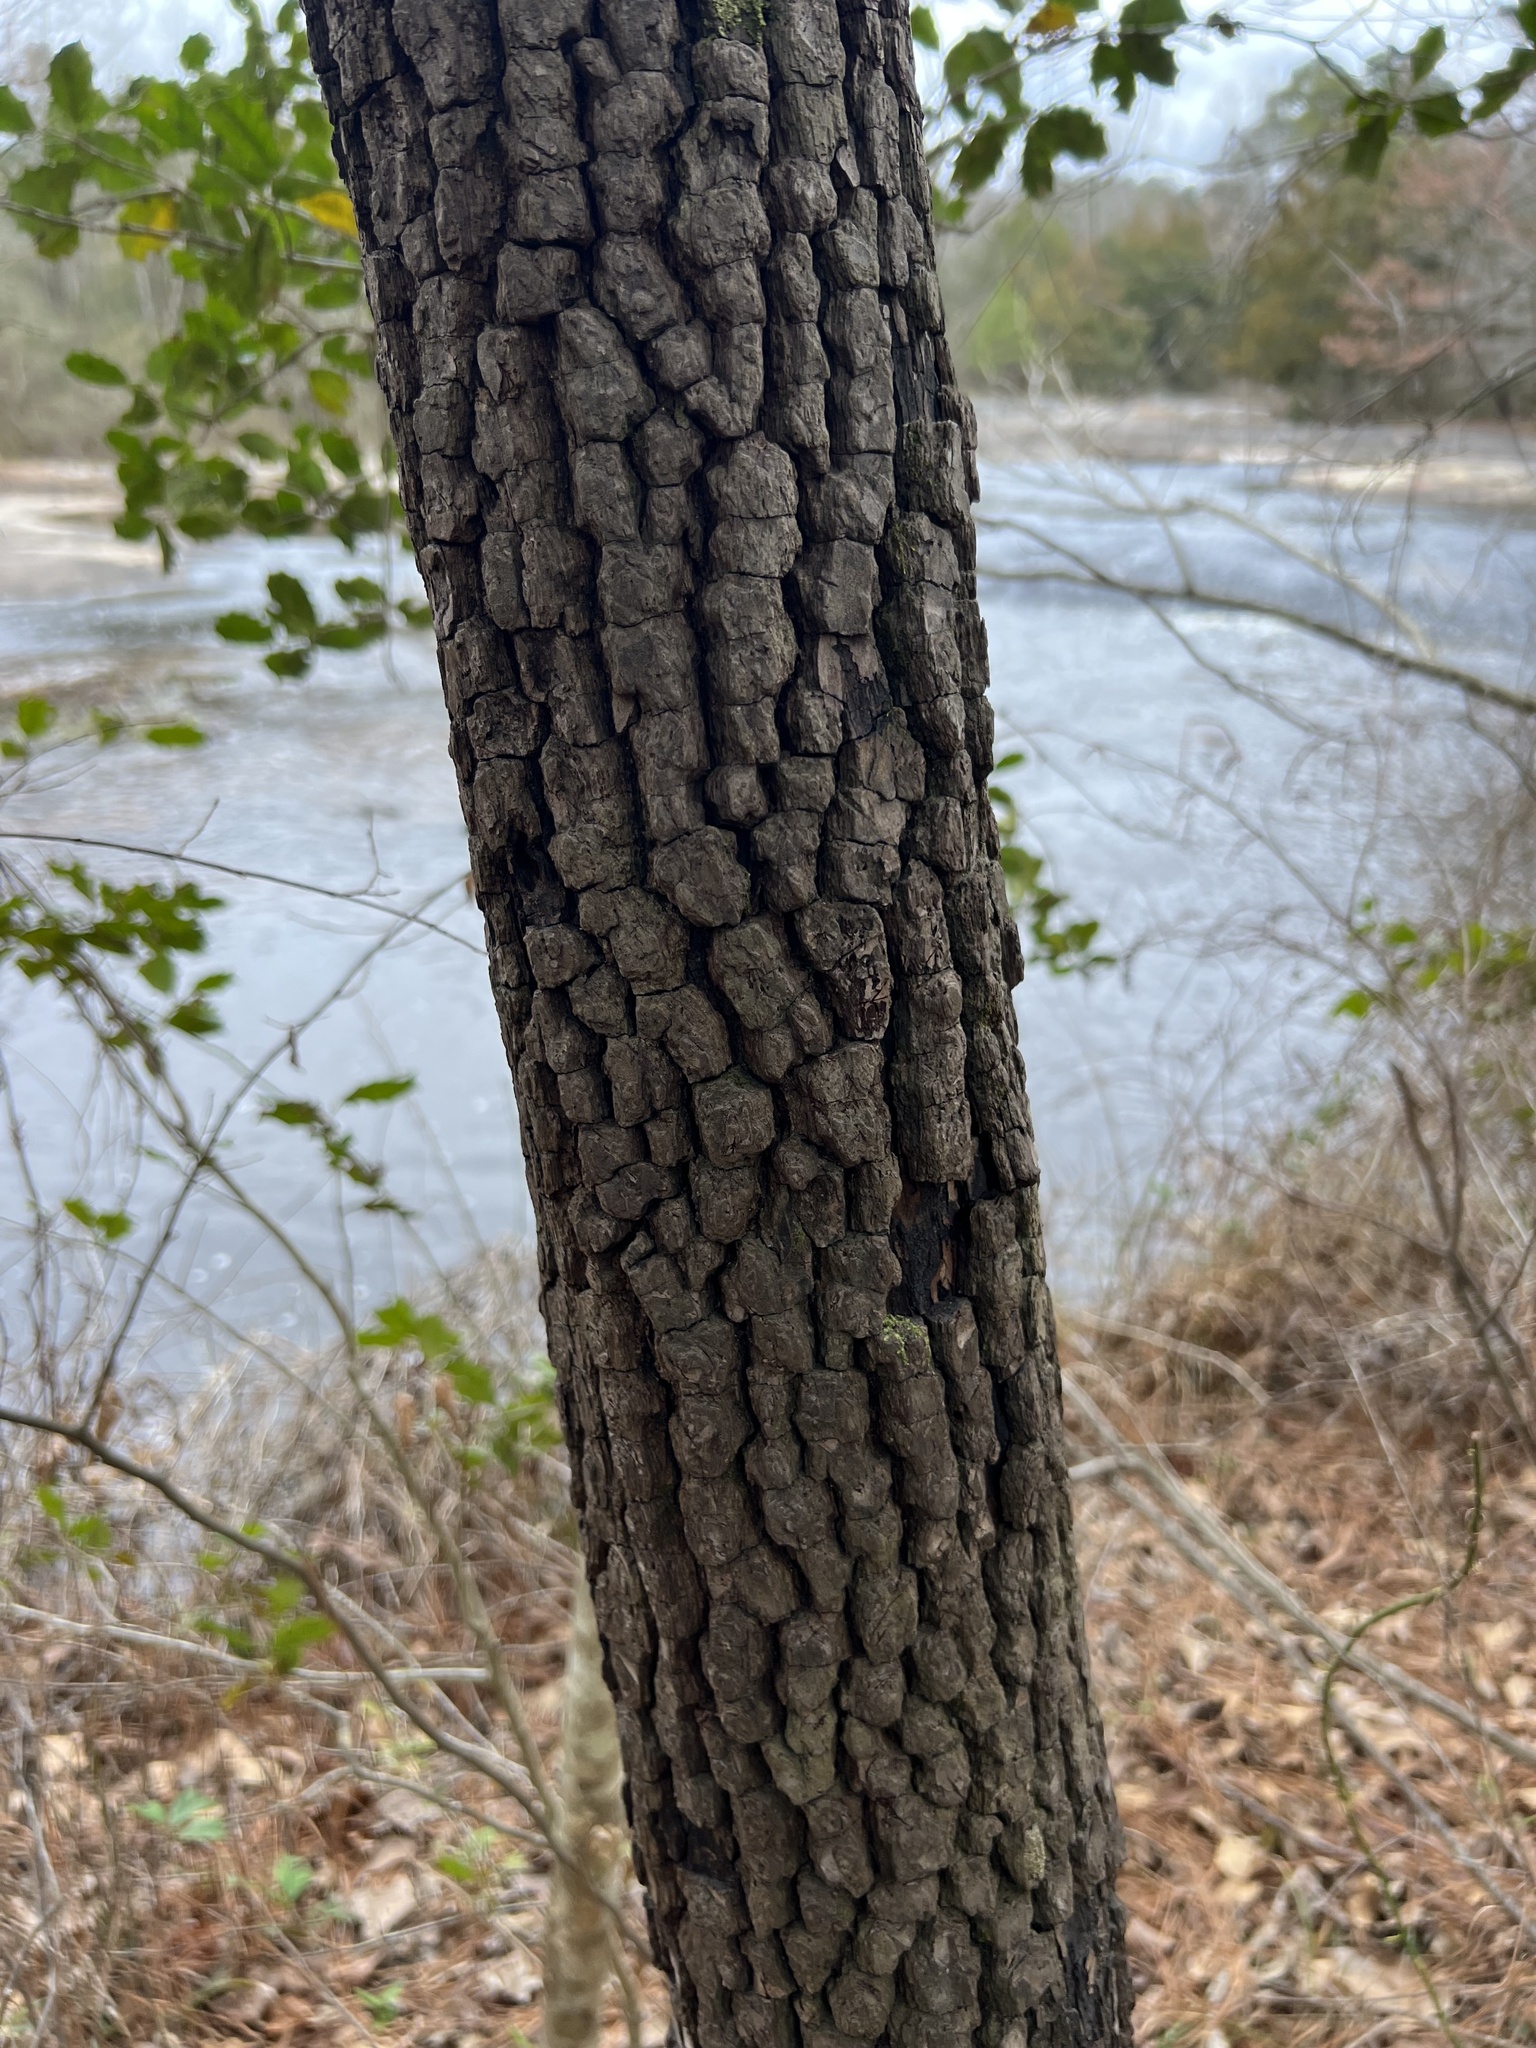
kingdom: Plantae
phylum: Tracheophyta
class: Magnoliopsida
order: Ericales
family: Ebenaceae
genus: Diospyros
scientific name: Diospyros virginiana
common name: Persimmon
